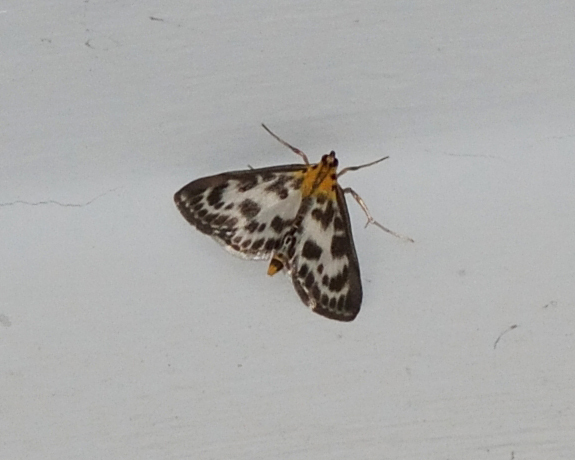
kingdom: Animalia
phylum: Arthropoda
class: Insecta
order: Lepidoptera
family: Crambidae
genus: Anania
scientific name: Anania hortulata
